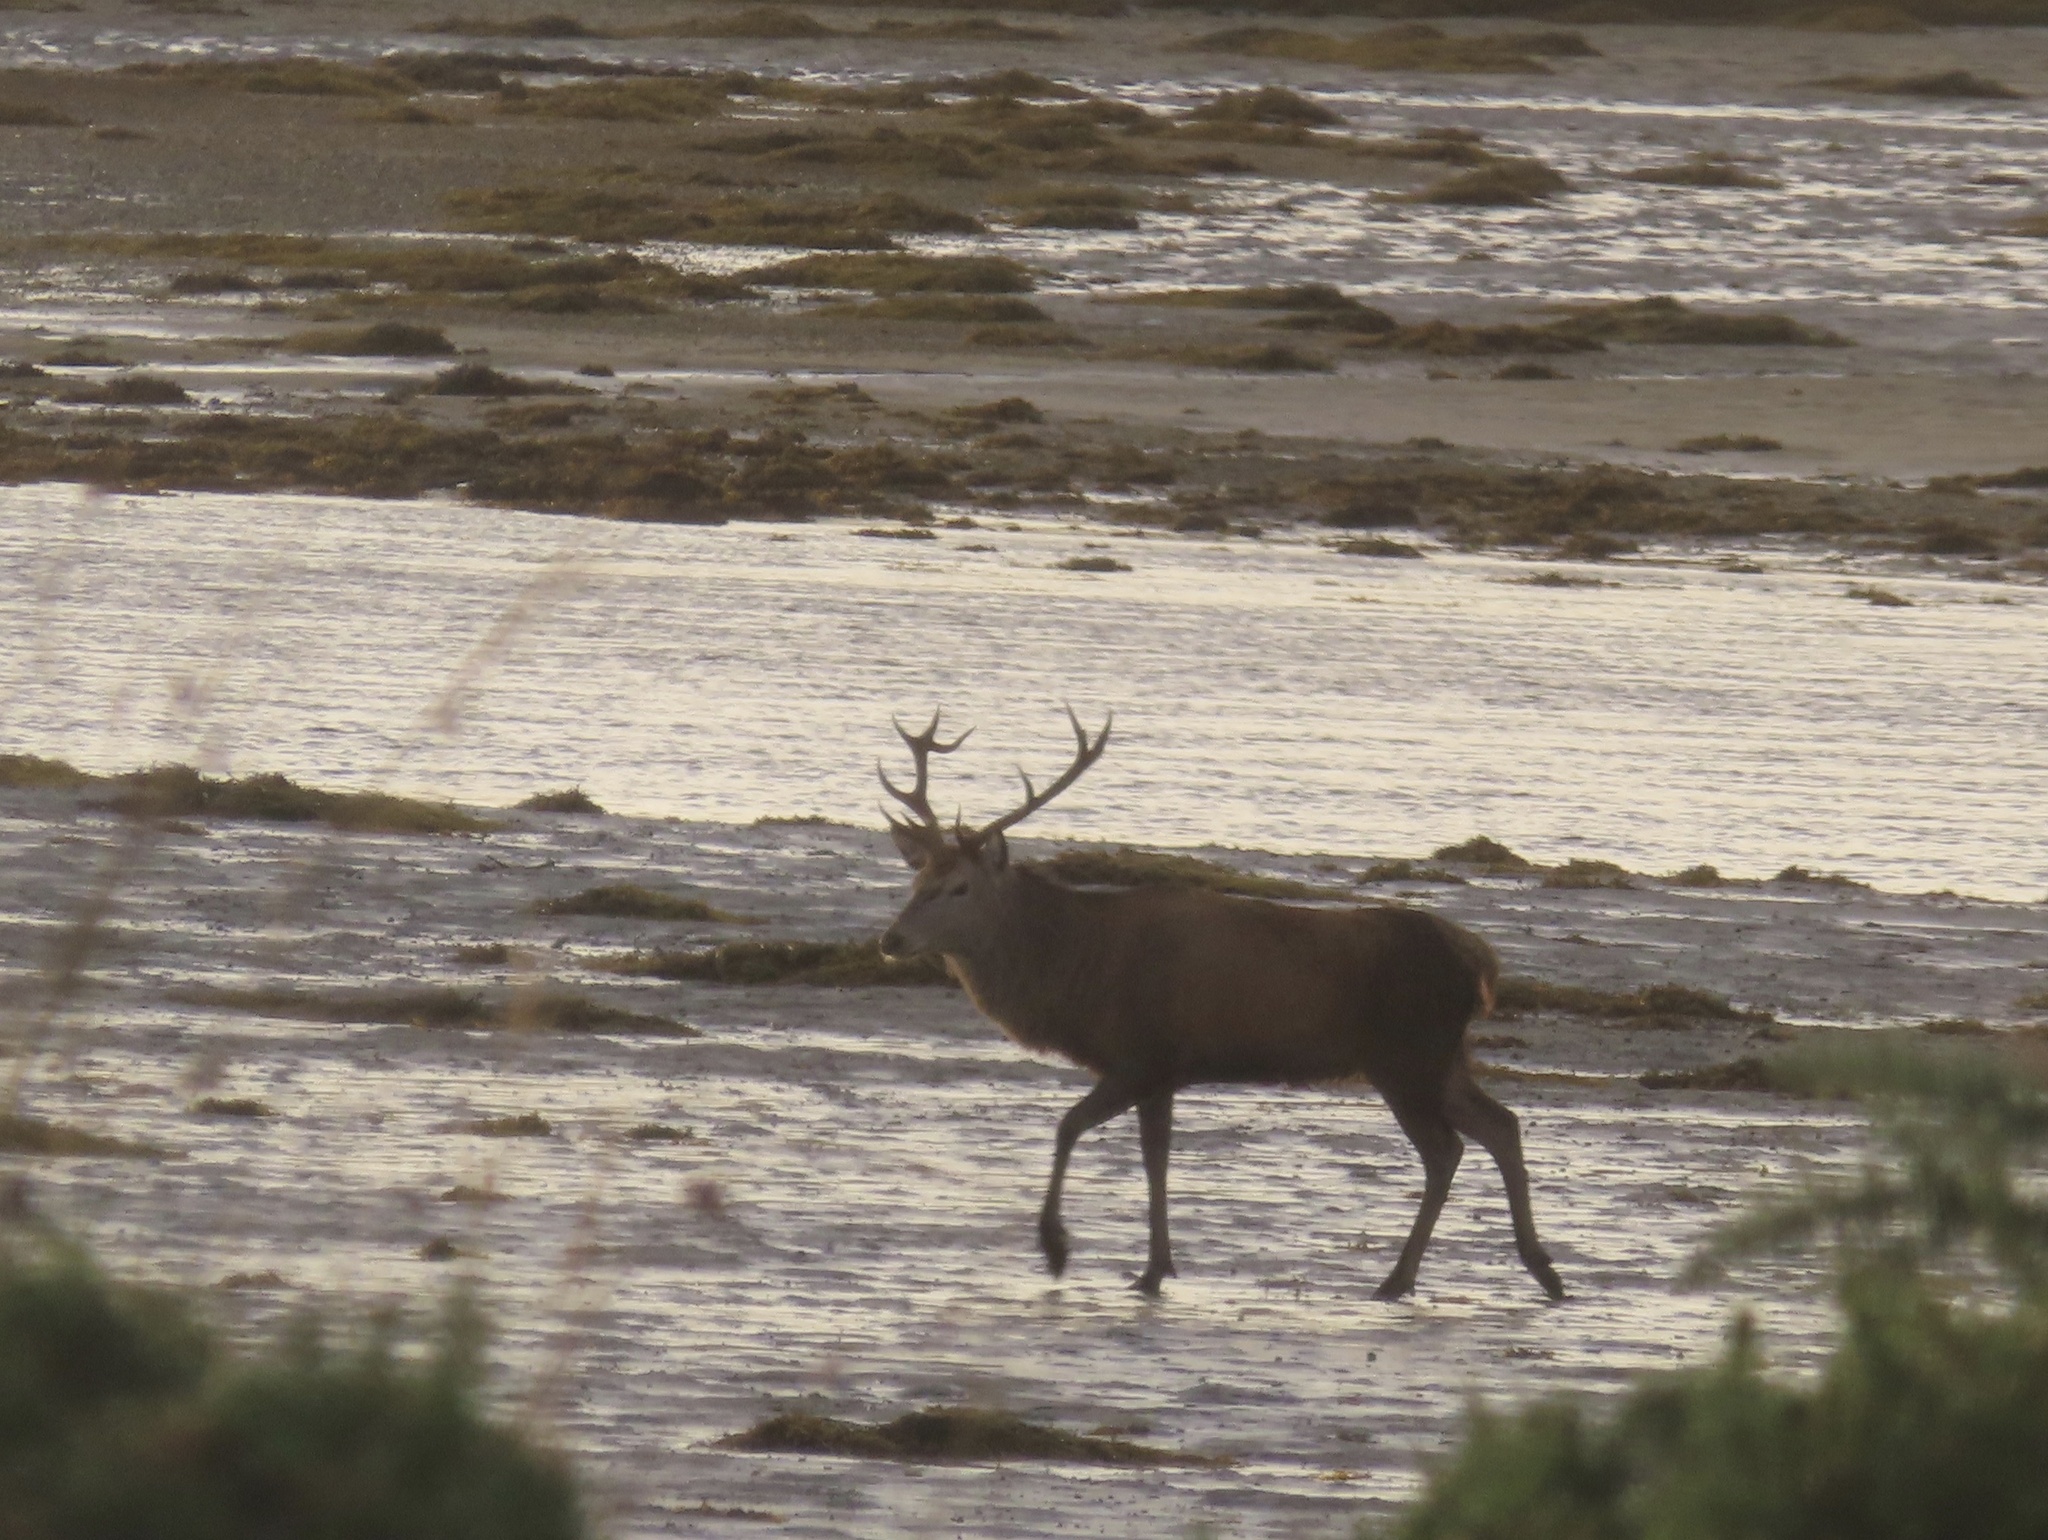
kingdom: Animalia
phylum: Chordata
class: Mammalia
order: Artiodactyla
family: Cervidae
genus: Cervus
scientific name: Cervus elaphus
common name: Red deer
